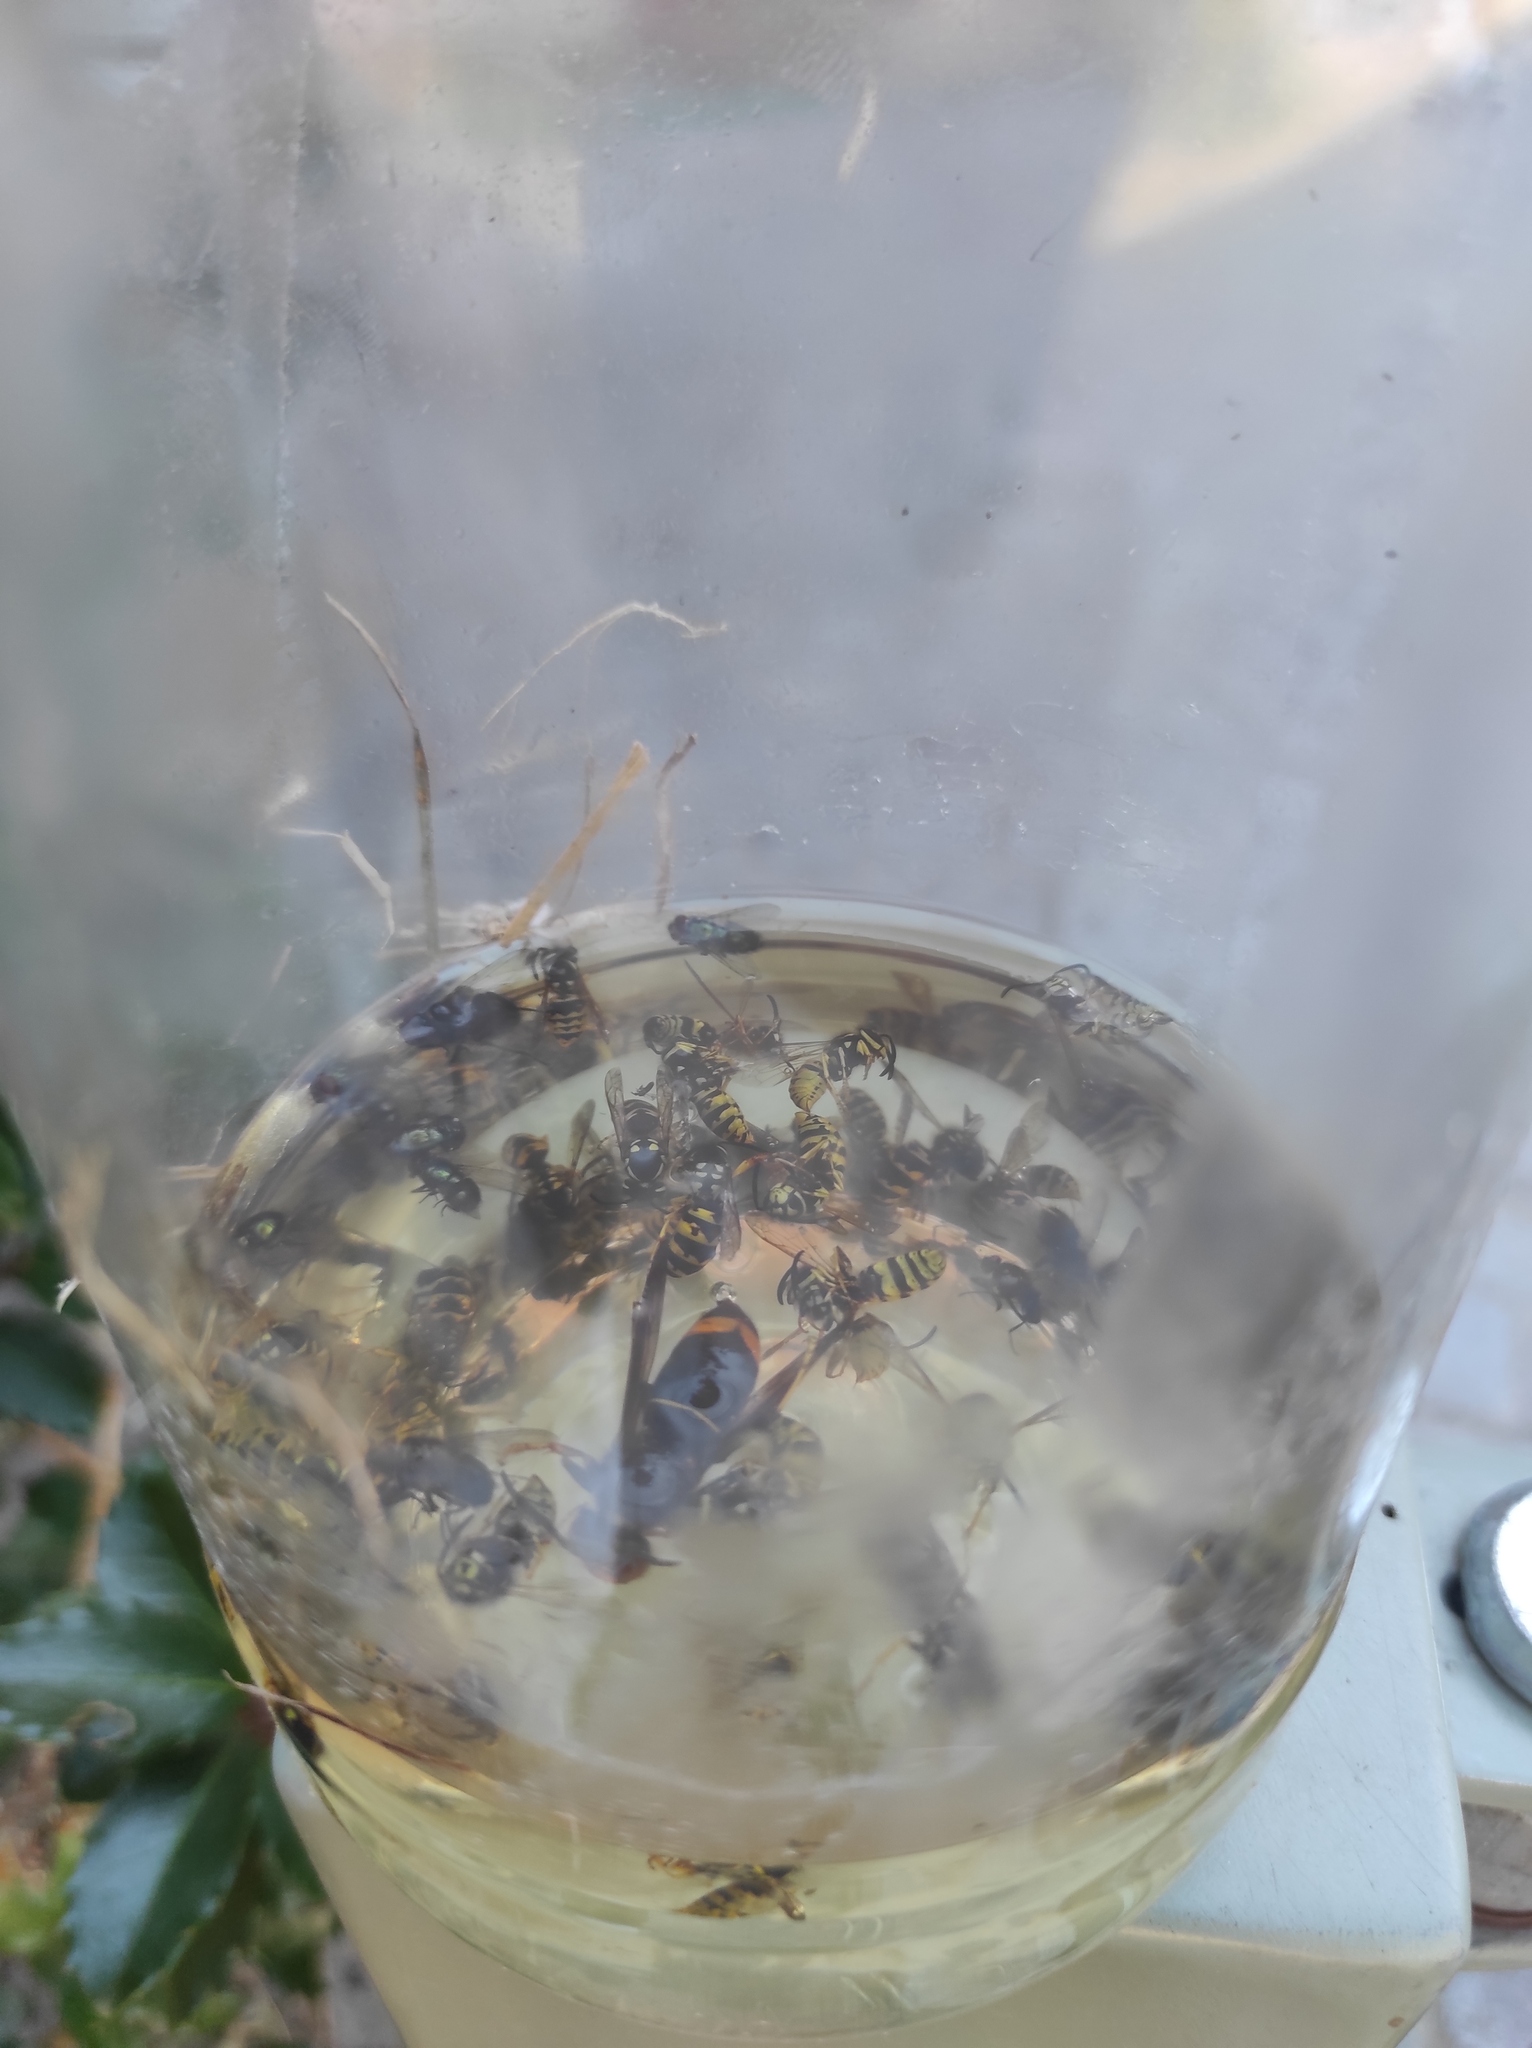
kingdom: Animalia
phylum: Arthropoda
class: Insecta
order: Hymenoptera
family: Vespidae
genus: Vespa
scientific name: Vespa velutina
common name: Asian hornet
